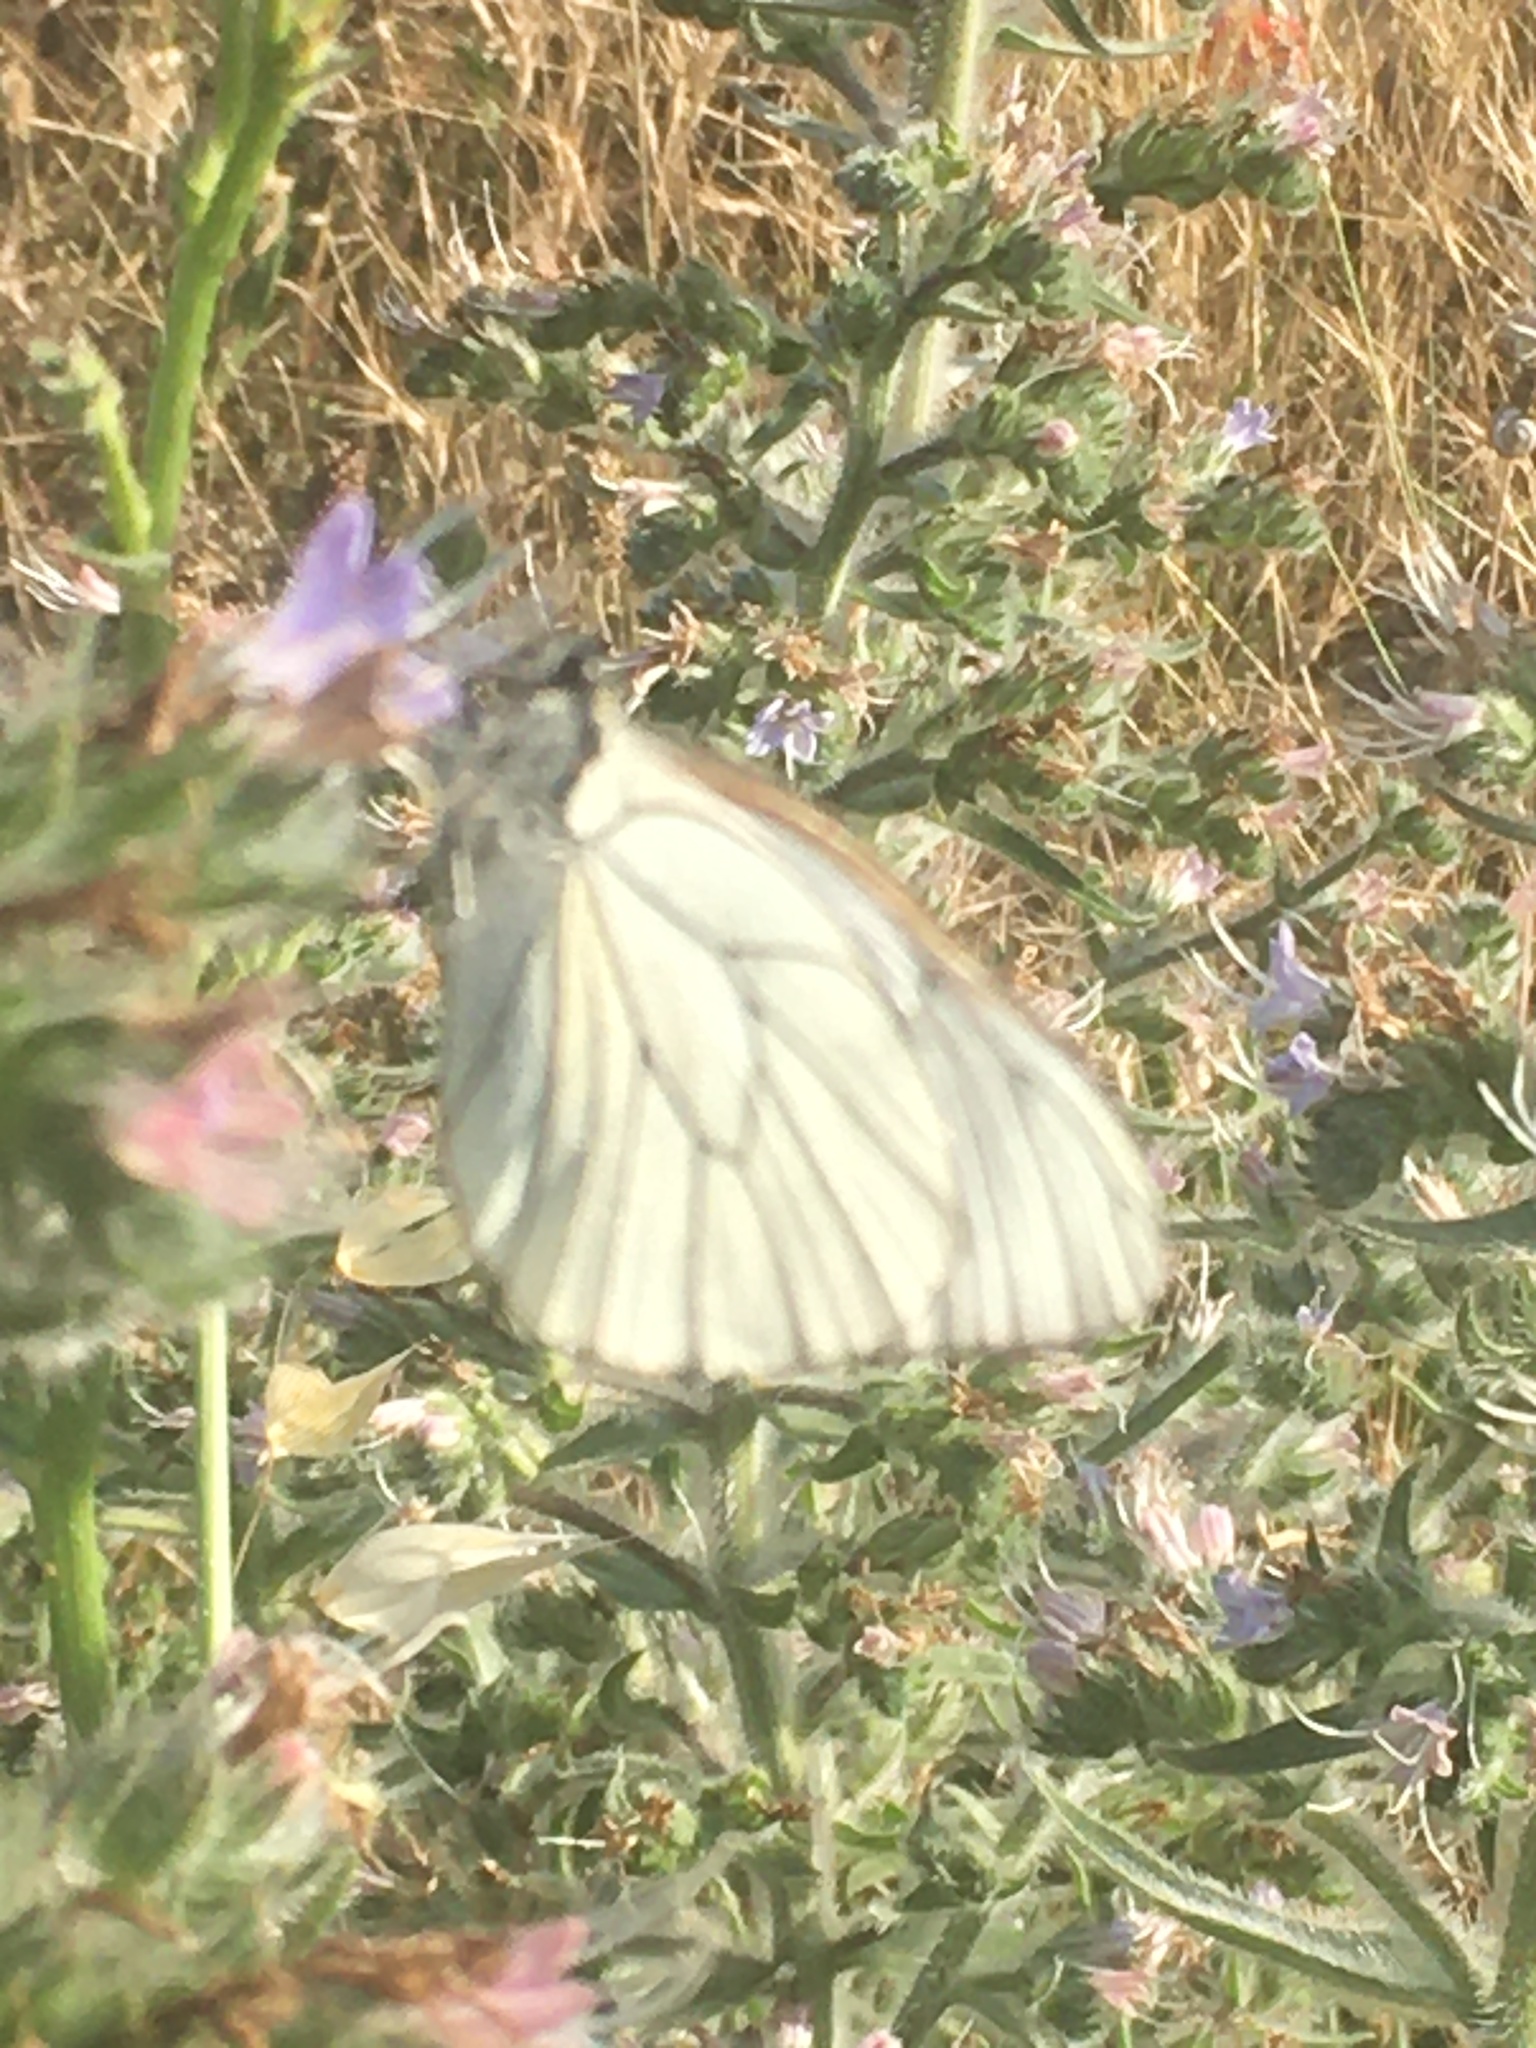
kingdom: Animalia
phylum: Arthropoda
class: Insecta
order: Lepidoptera
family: Pieridae
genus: Aporia
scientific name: Aporia crataegi
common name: Black-veined white
